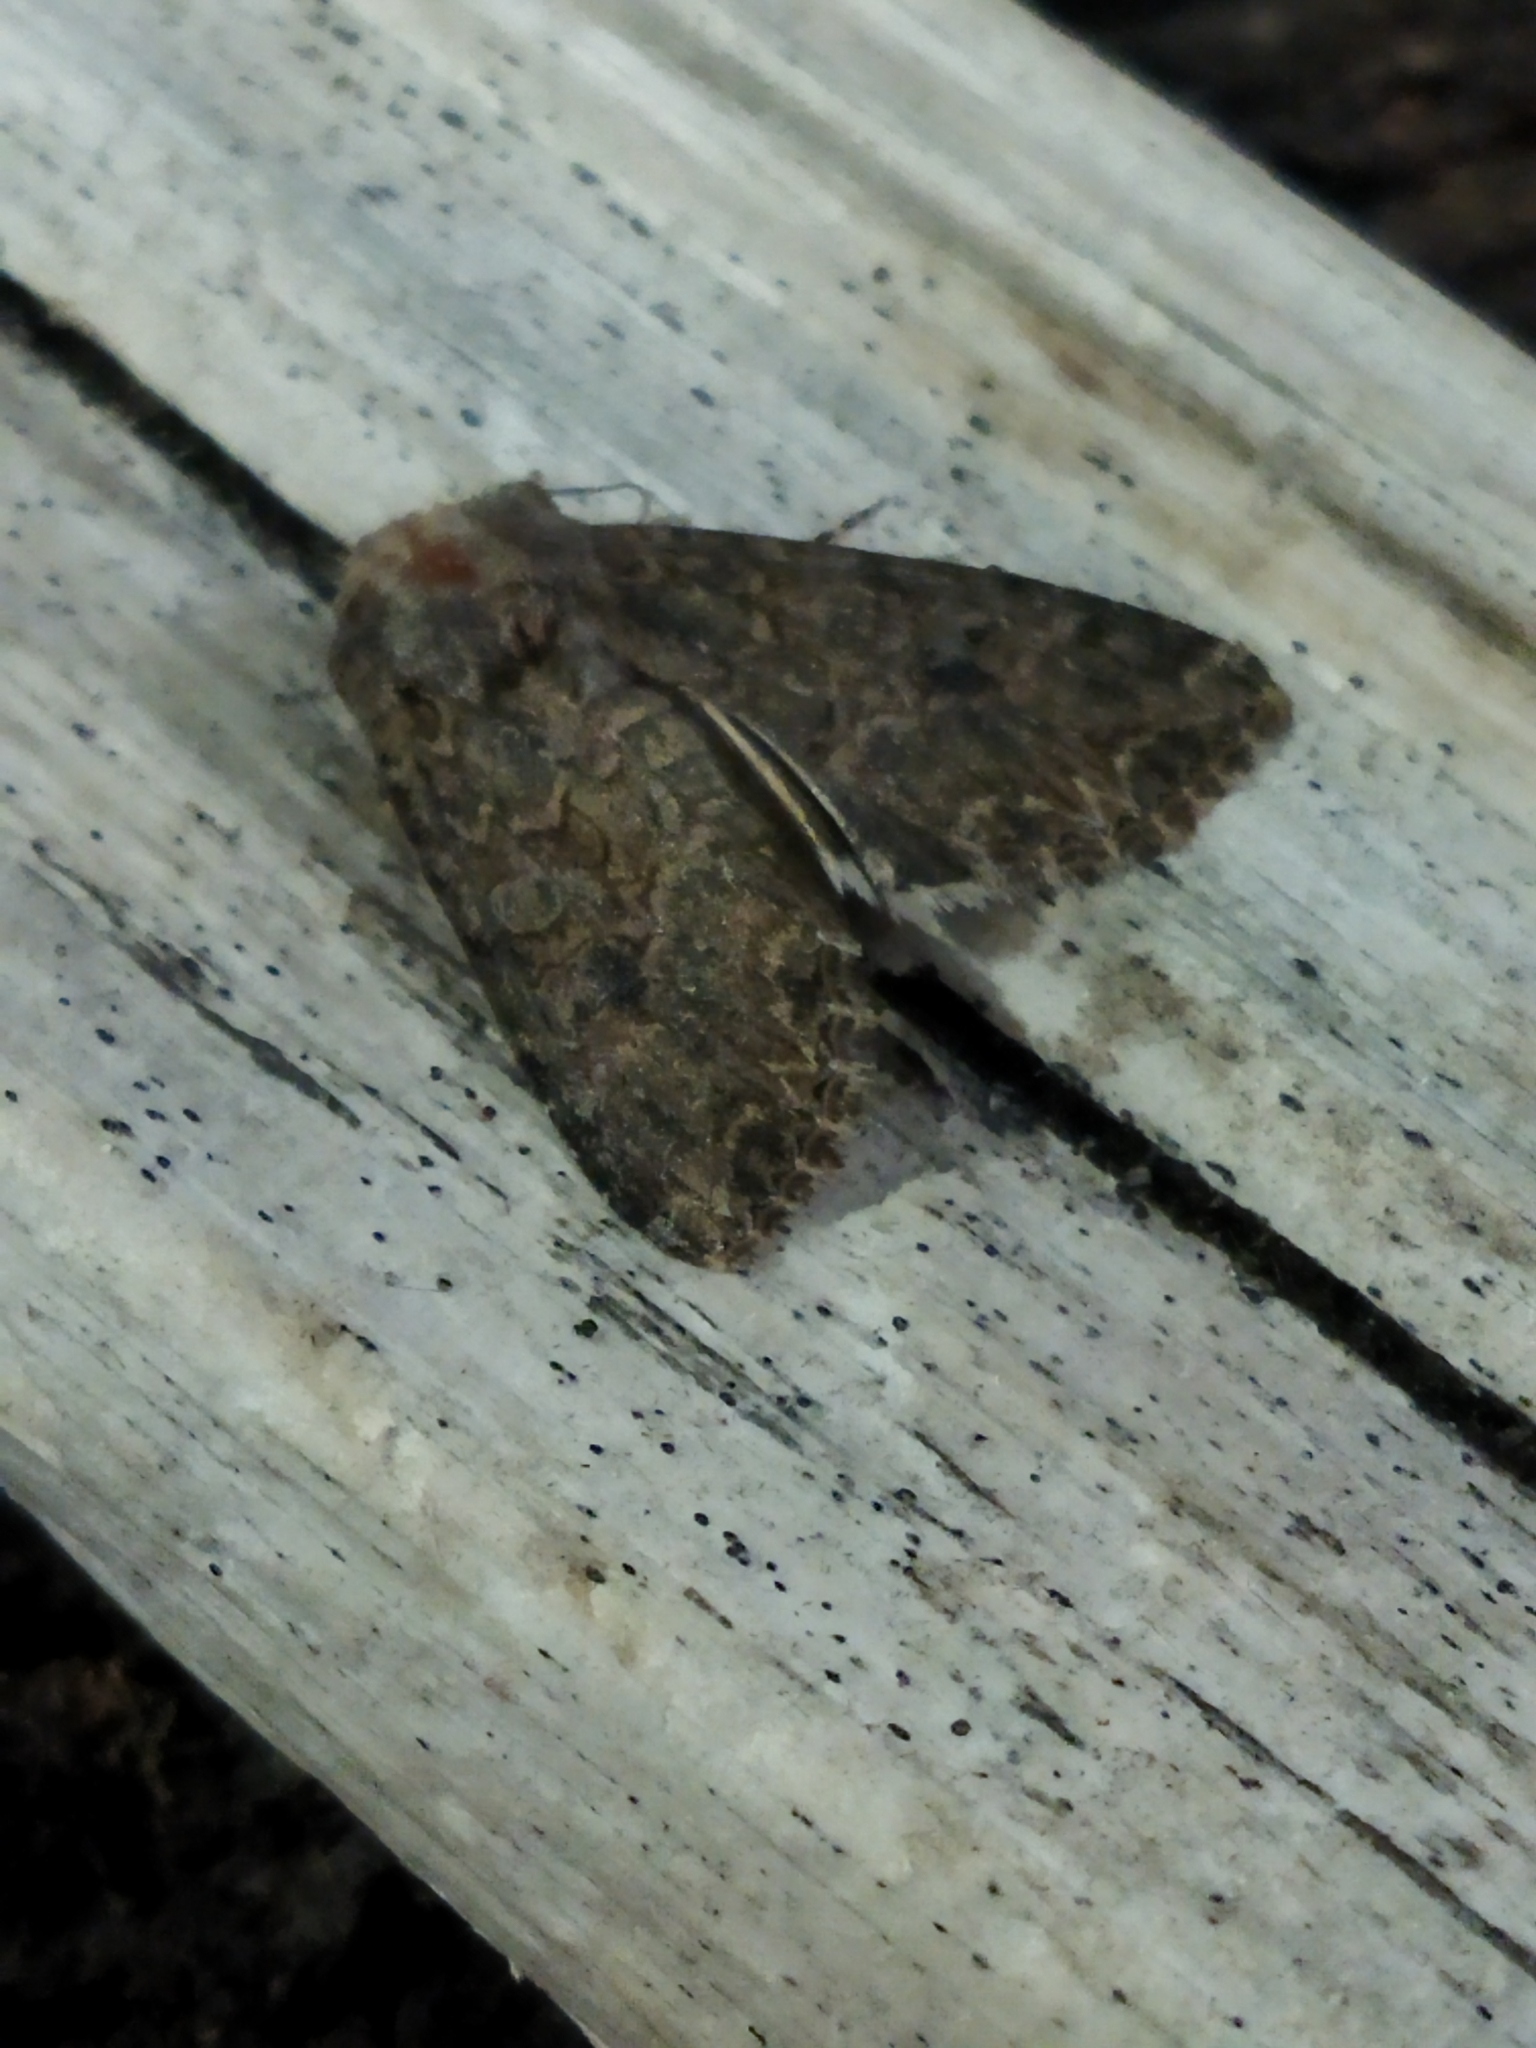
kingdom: Animalia
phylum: Arthropoda
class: Insecta
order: Lepidoptera
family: Noctuidae
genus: Anarta
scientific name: Anarta trifolii
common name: Clover cutworm moth
